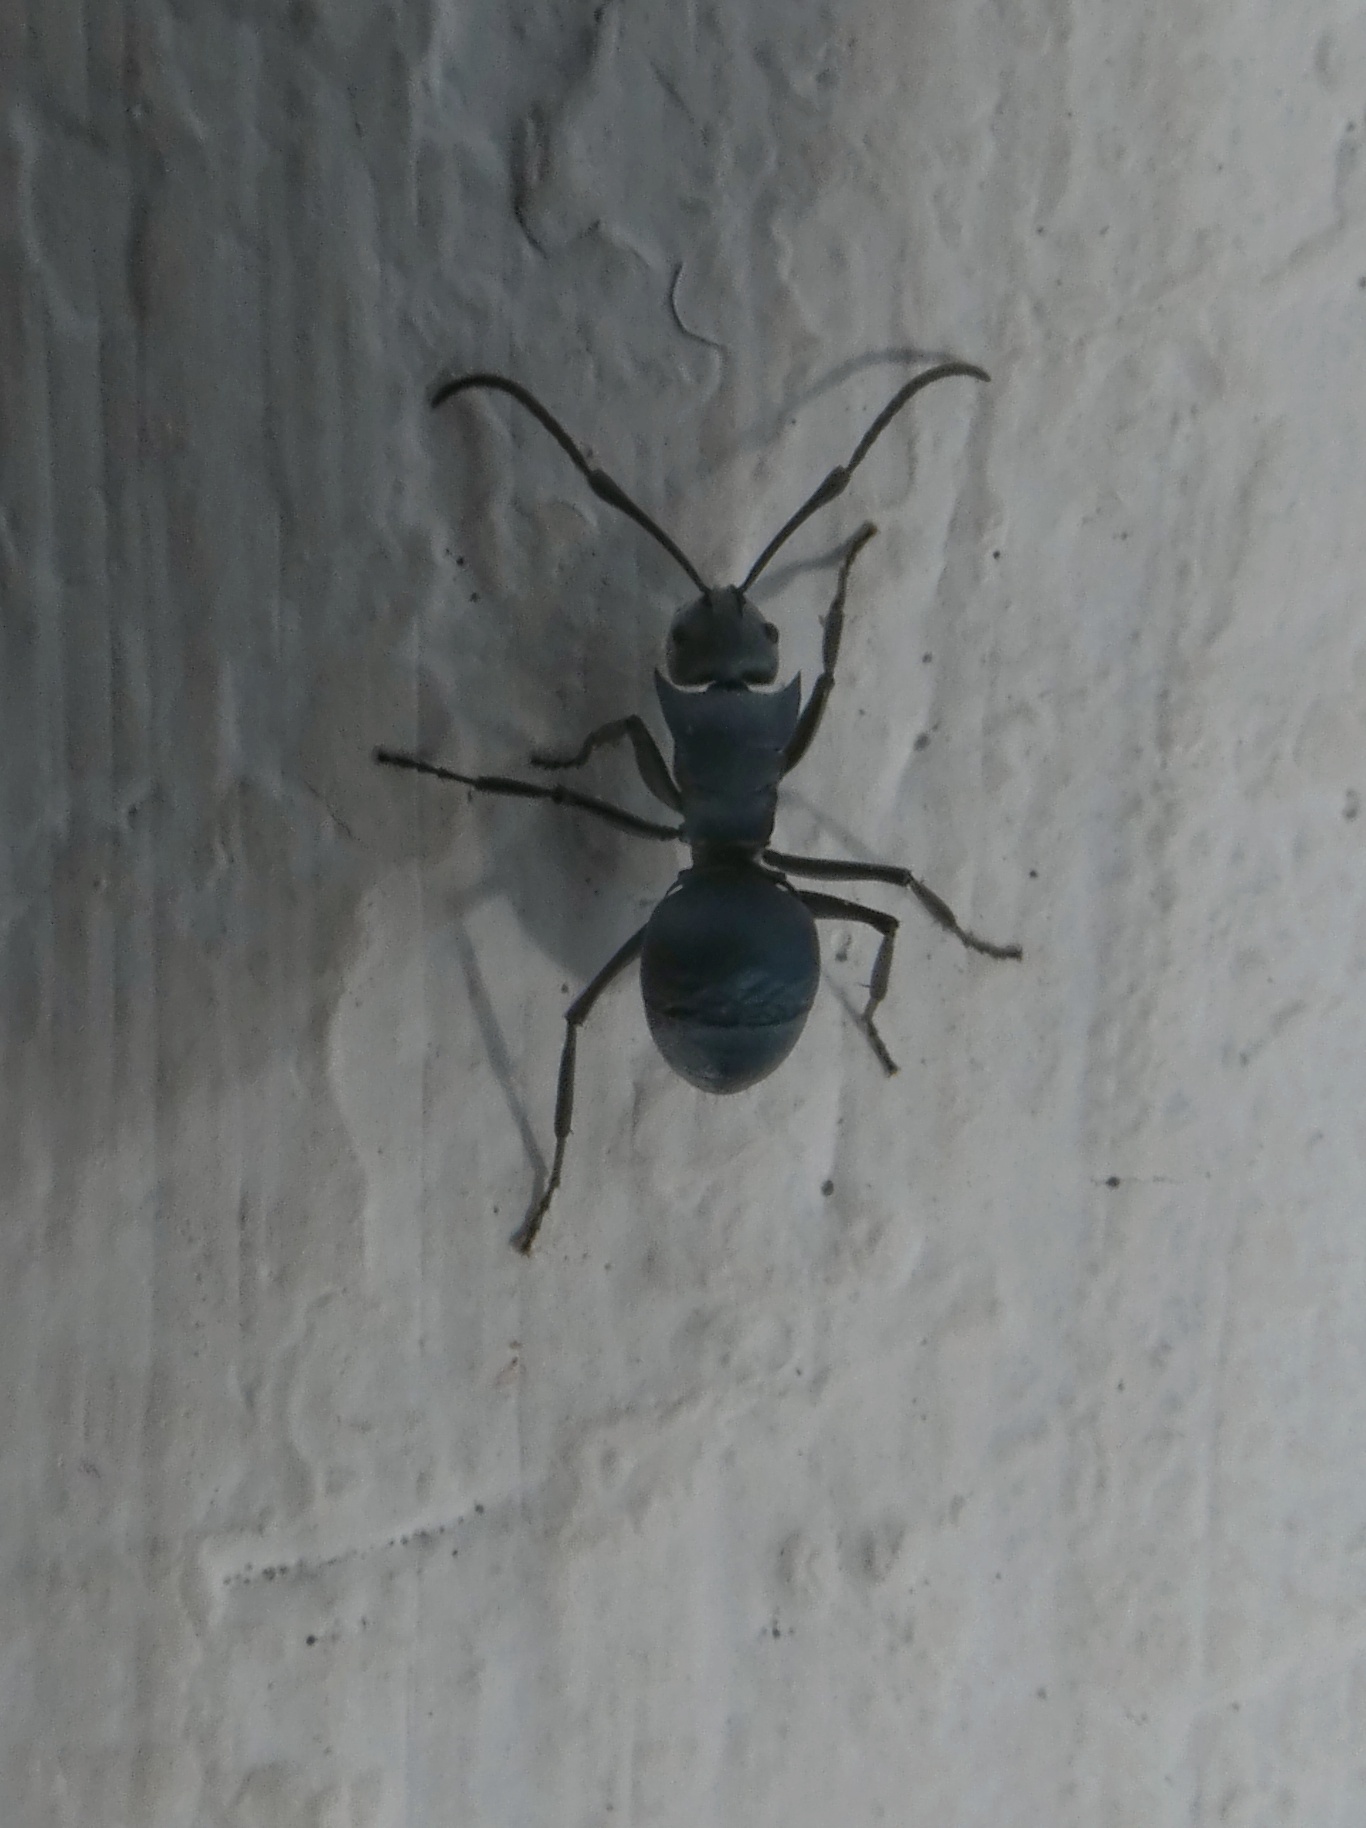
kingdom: Animalia
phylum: Arthropoda
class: Insecta
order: Hymenoptera
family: Formicidae
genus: Polyrhachis
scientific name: Polyrhachis cyaniventris
